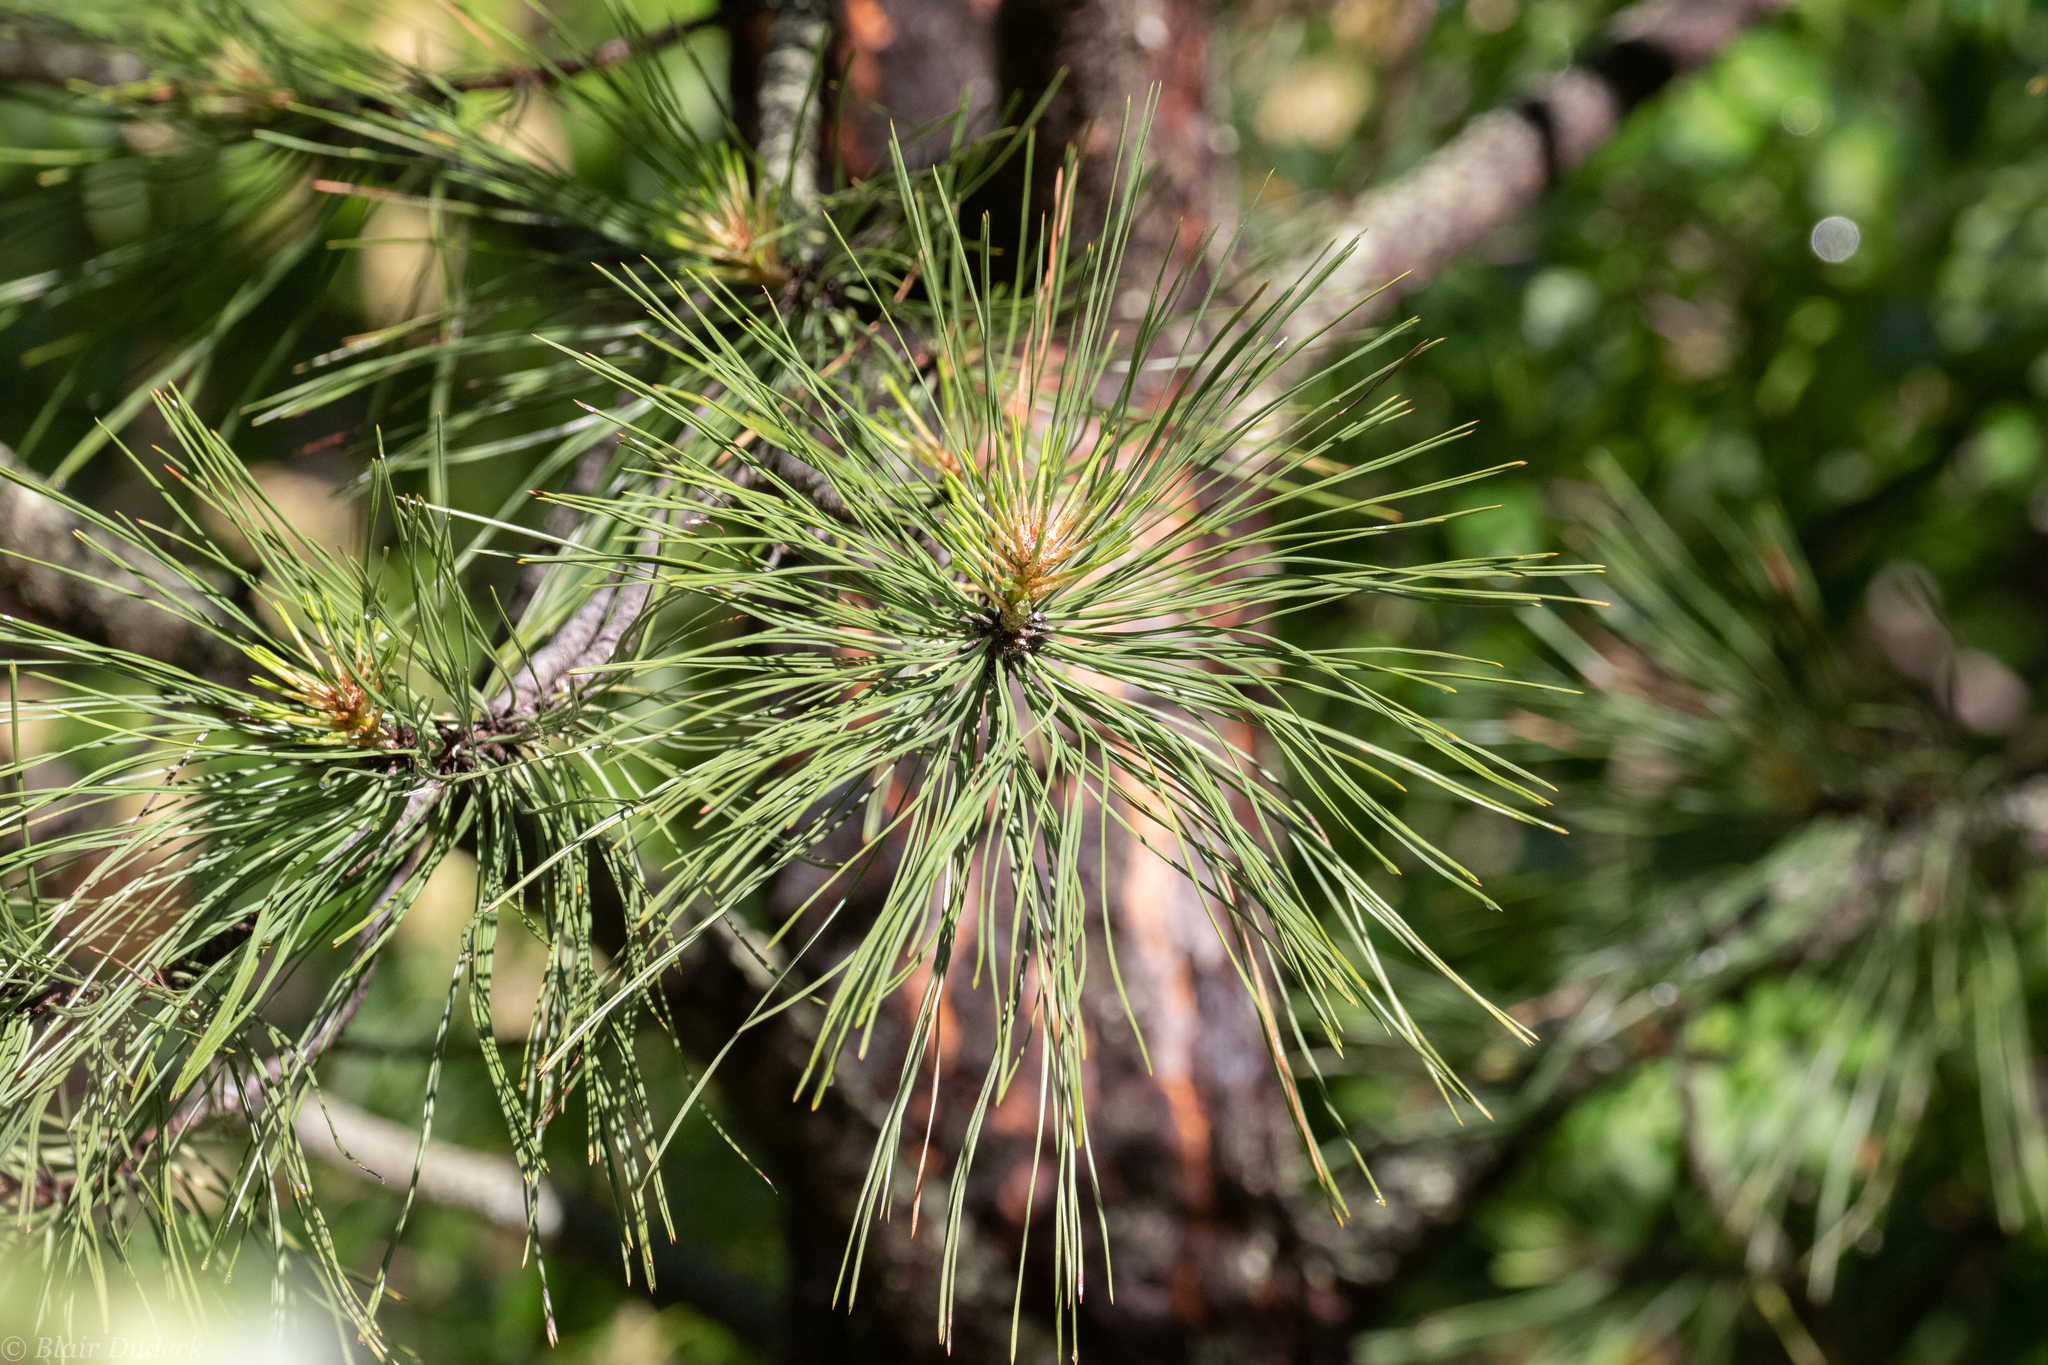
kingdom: Plantae
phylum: Tracheophyta
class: Pinopsida
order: Pinales
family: Pinaceae
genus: Pinus
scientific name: Pinus ponderosa
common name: Western yellow-pine
